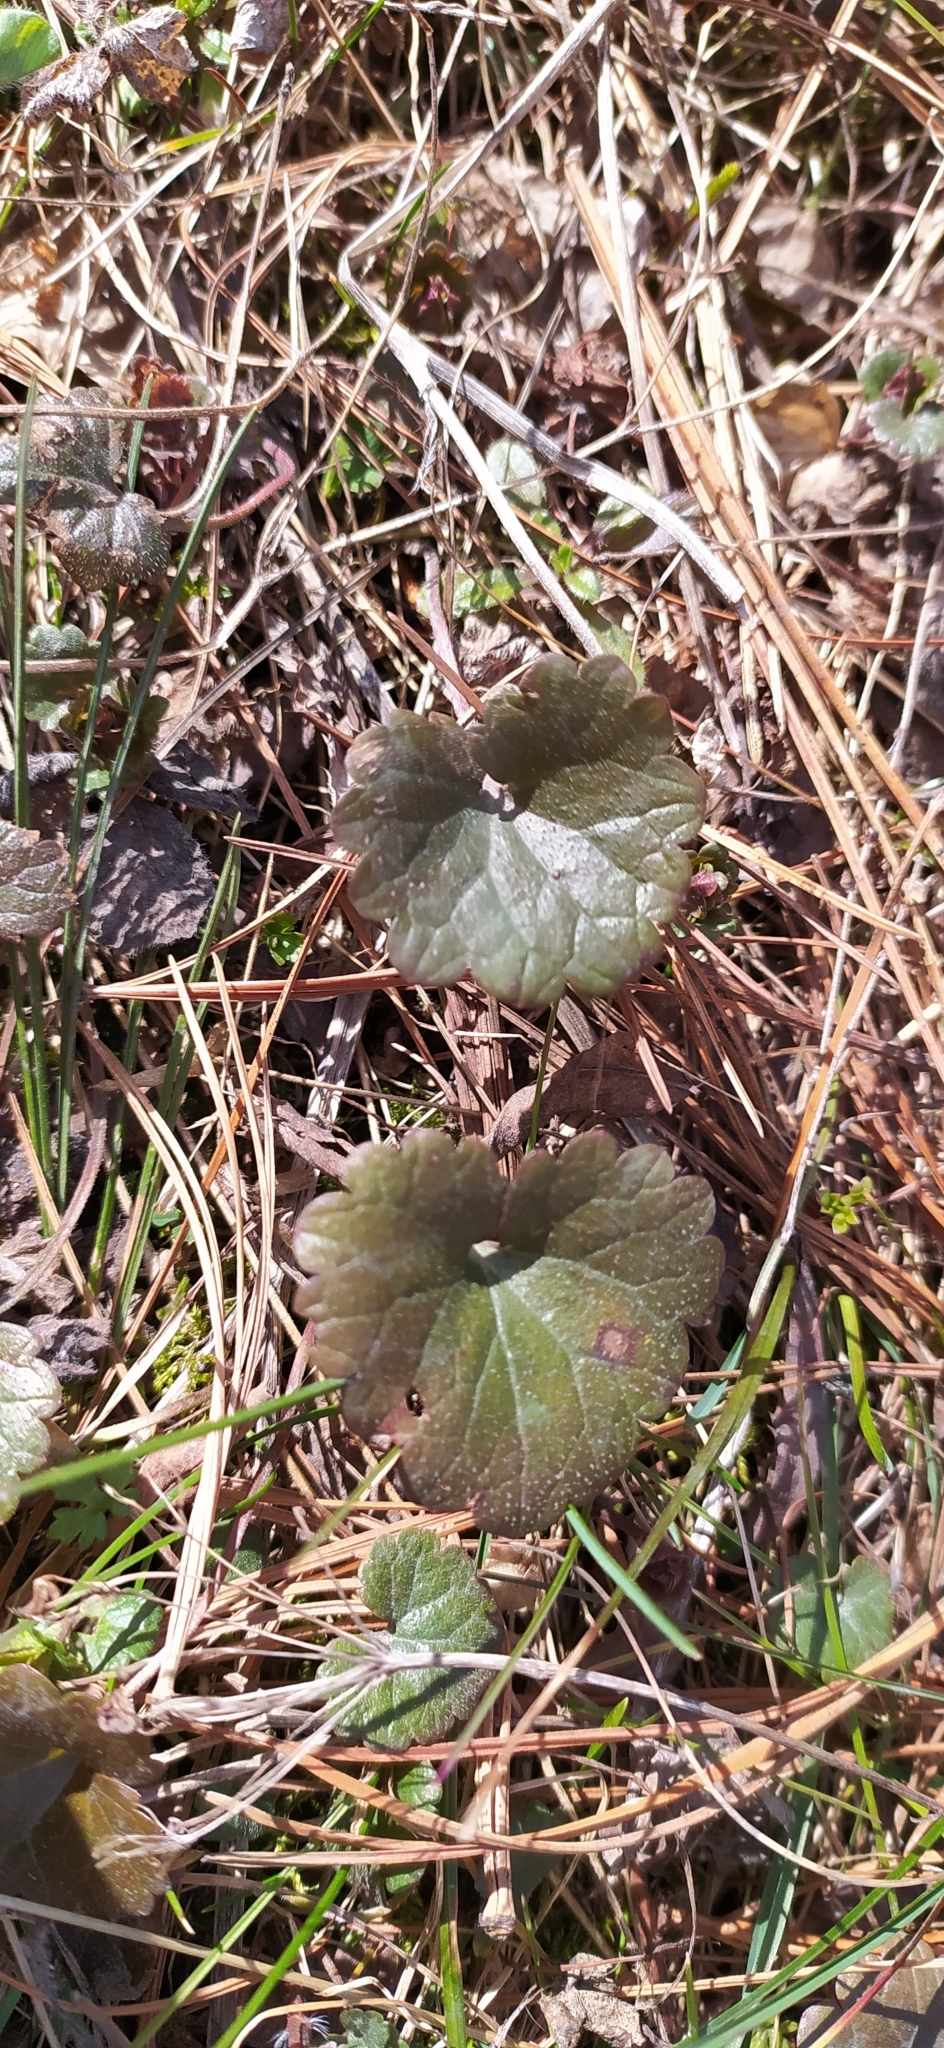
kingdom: Plantae
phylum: Tracheophyta
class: Magnoliopsida
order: Lamiales
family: Lamiaceae
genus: Glechoma
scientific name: Glechoma hederacea
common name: Ground ivy
